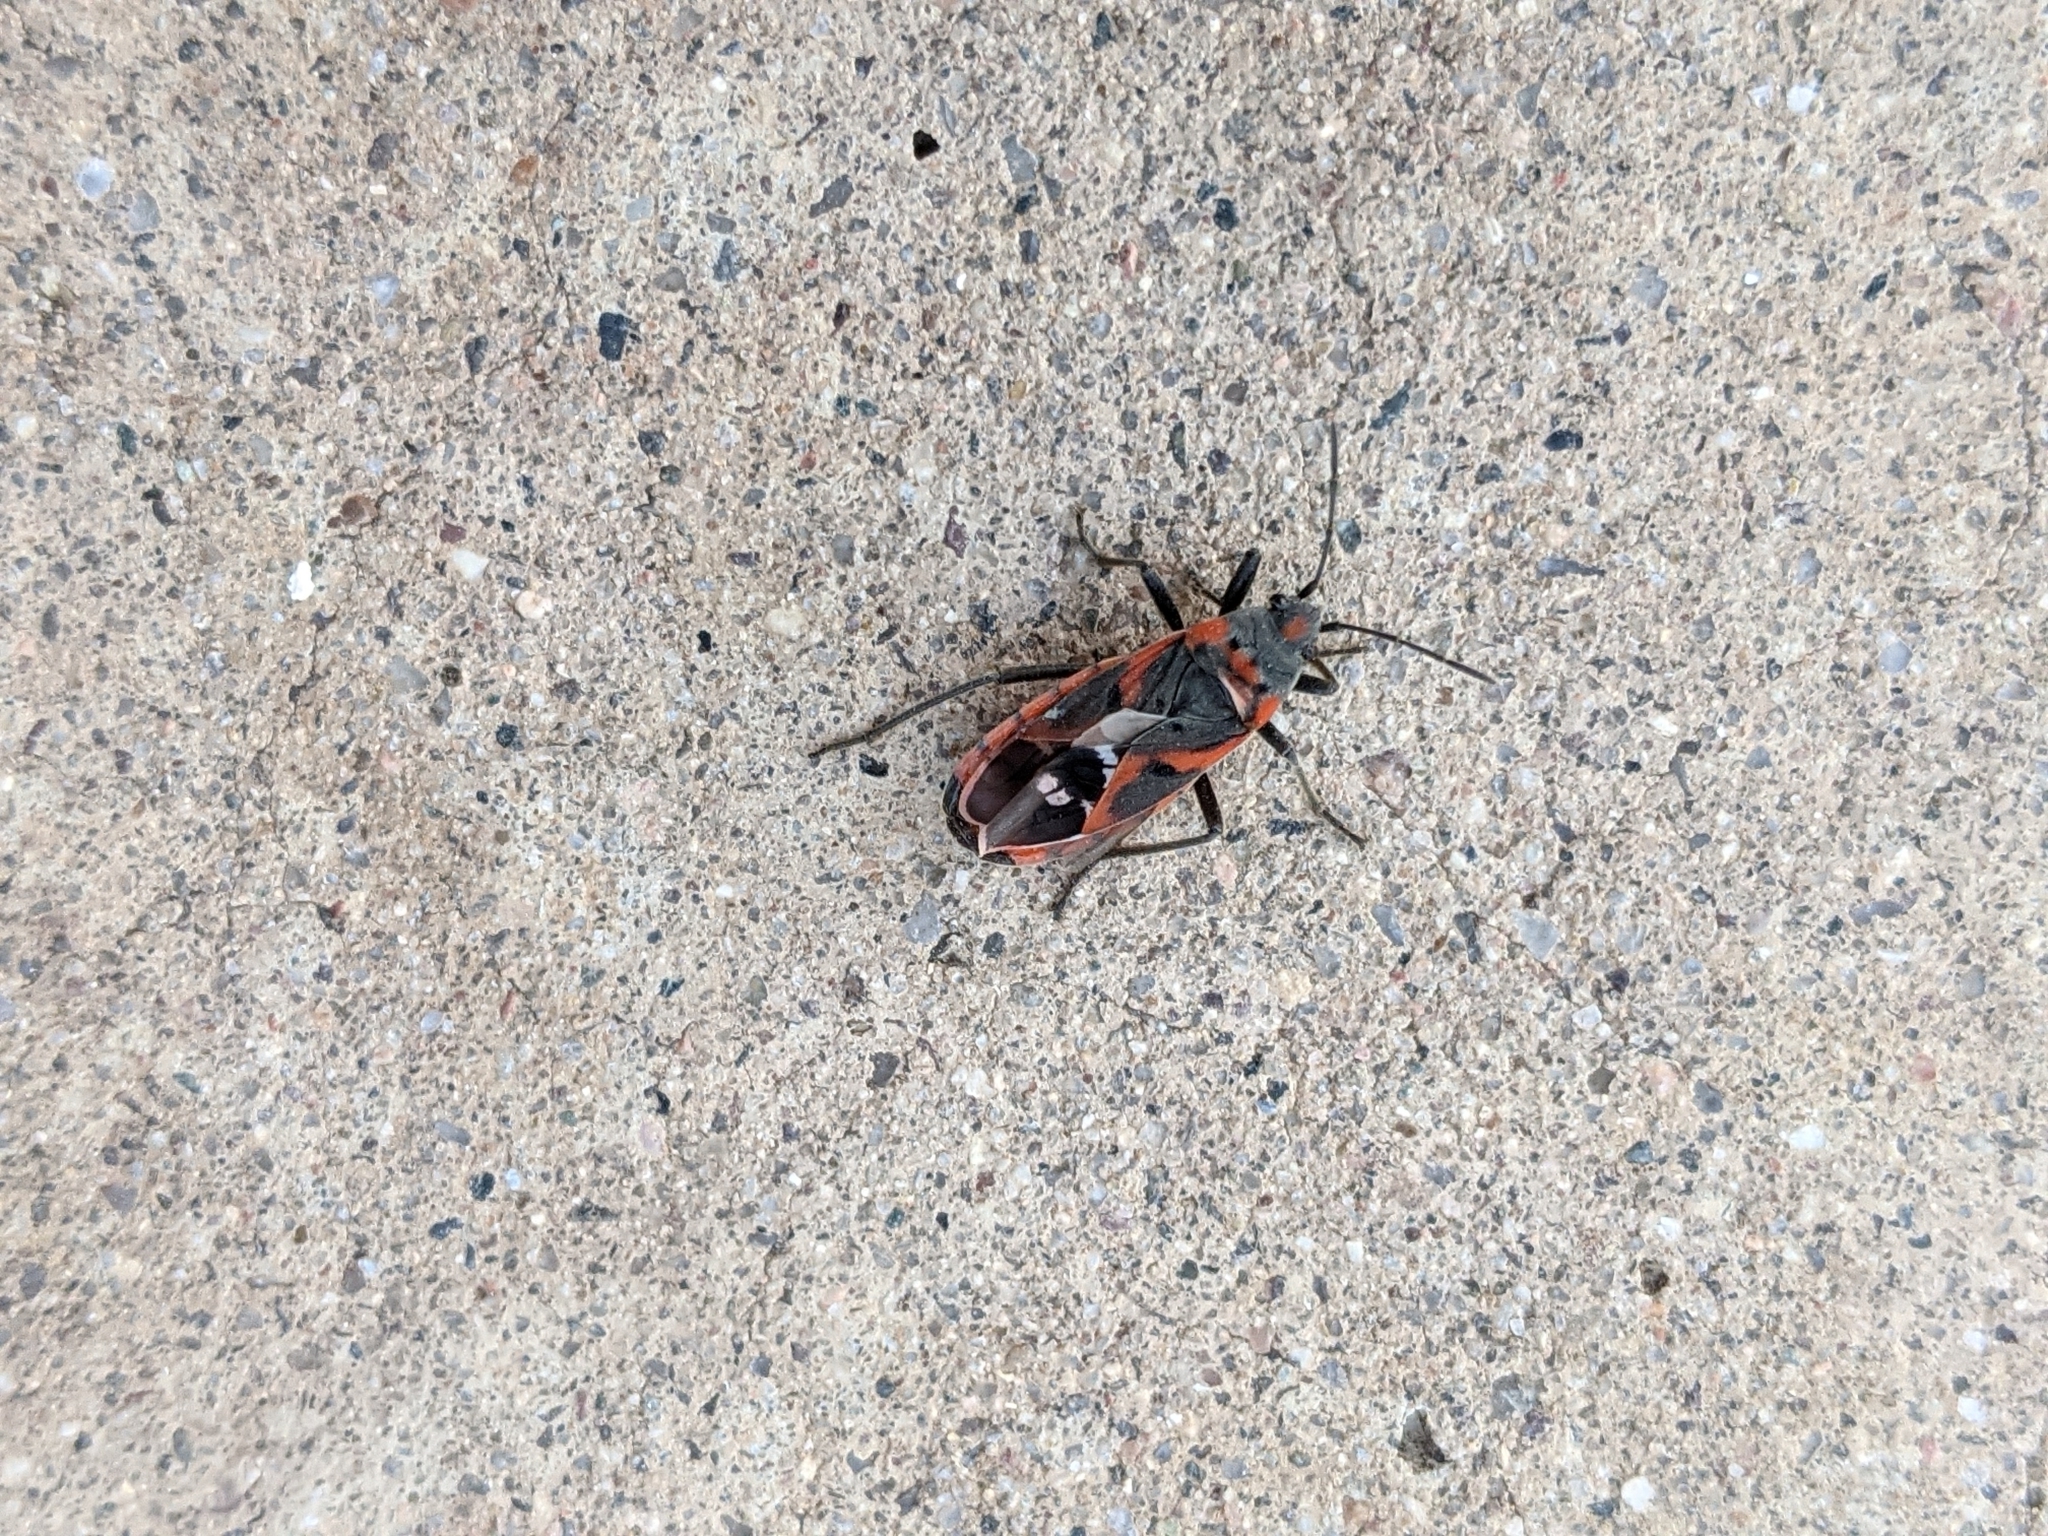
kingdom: Animalia
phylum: Arthropoda
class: Insecta
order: Hemiptera
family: Lygaeidae
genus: Lygaeus
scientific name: Lygaeus kalmii
